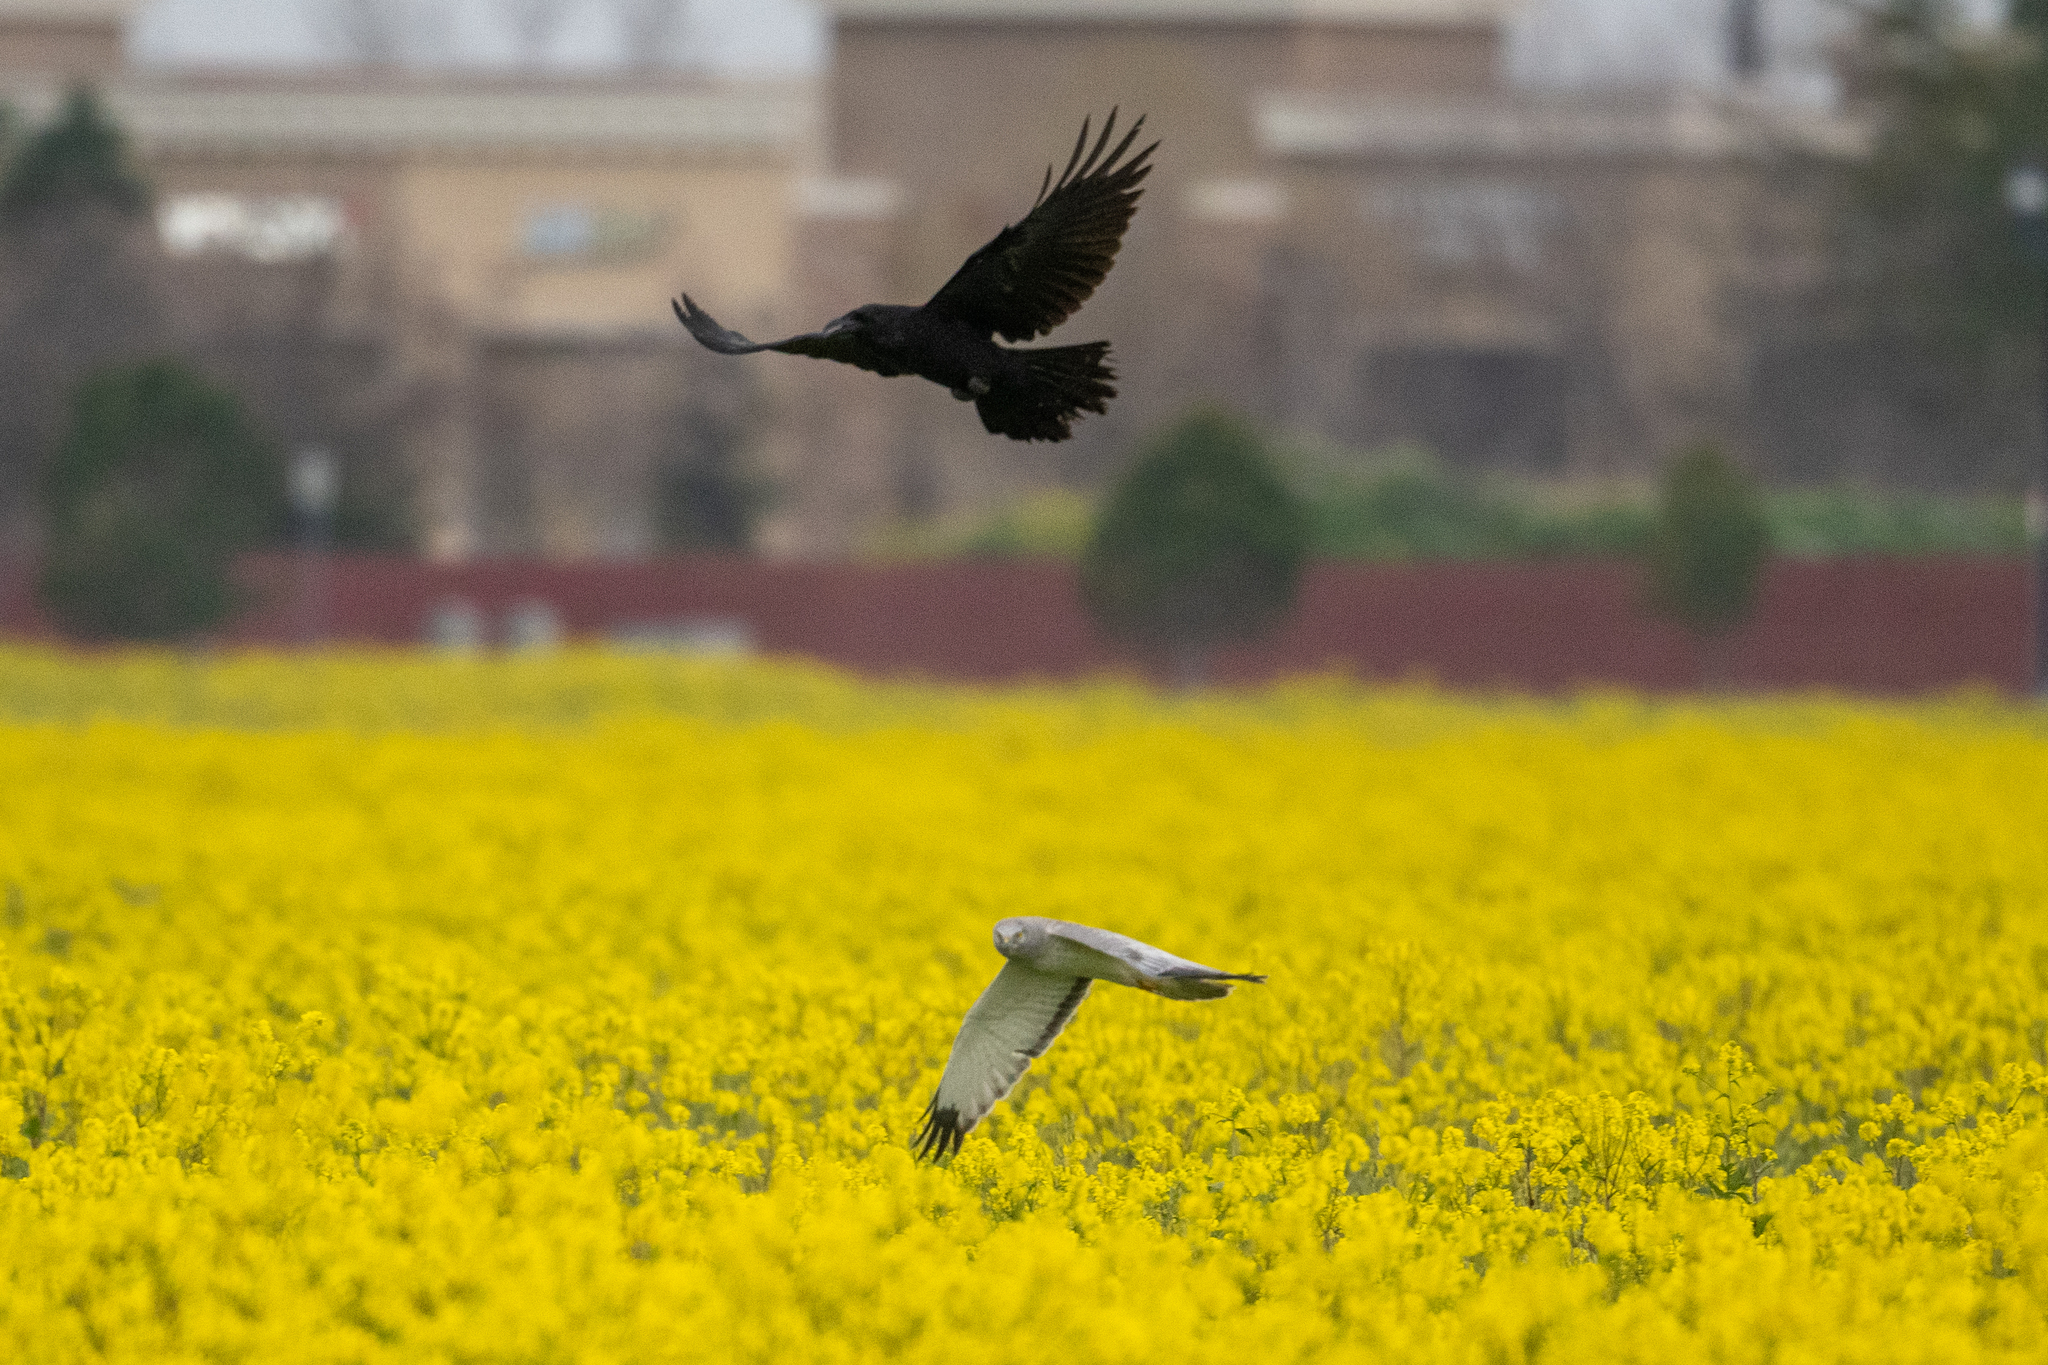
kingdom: Animalia
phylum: Chordata
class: Aves
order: Passeriformes
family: Corvidae
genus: Corvus
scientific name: Corvus corax
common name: Common raven
